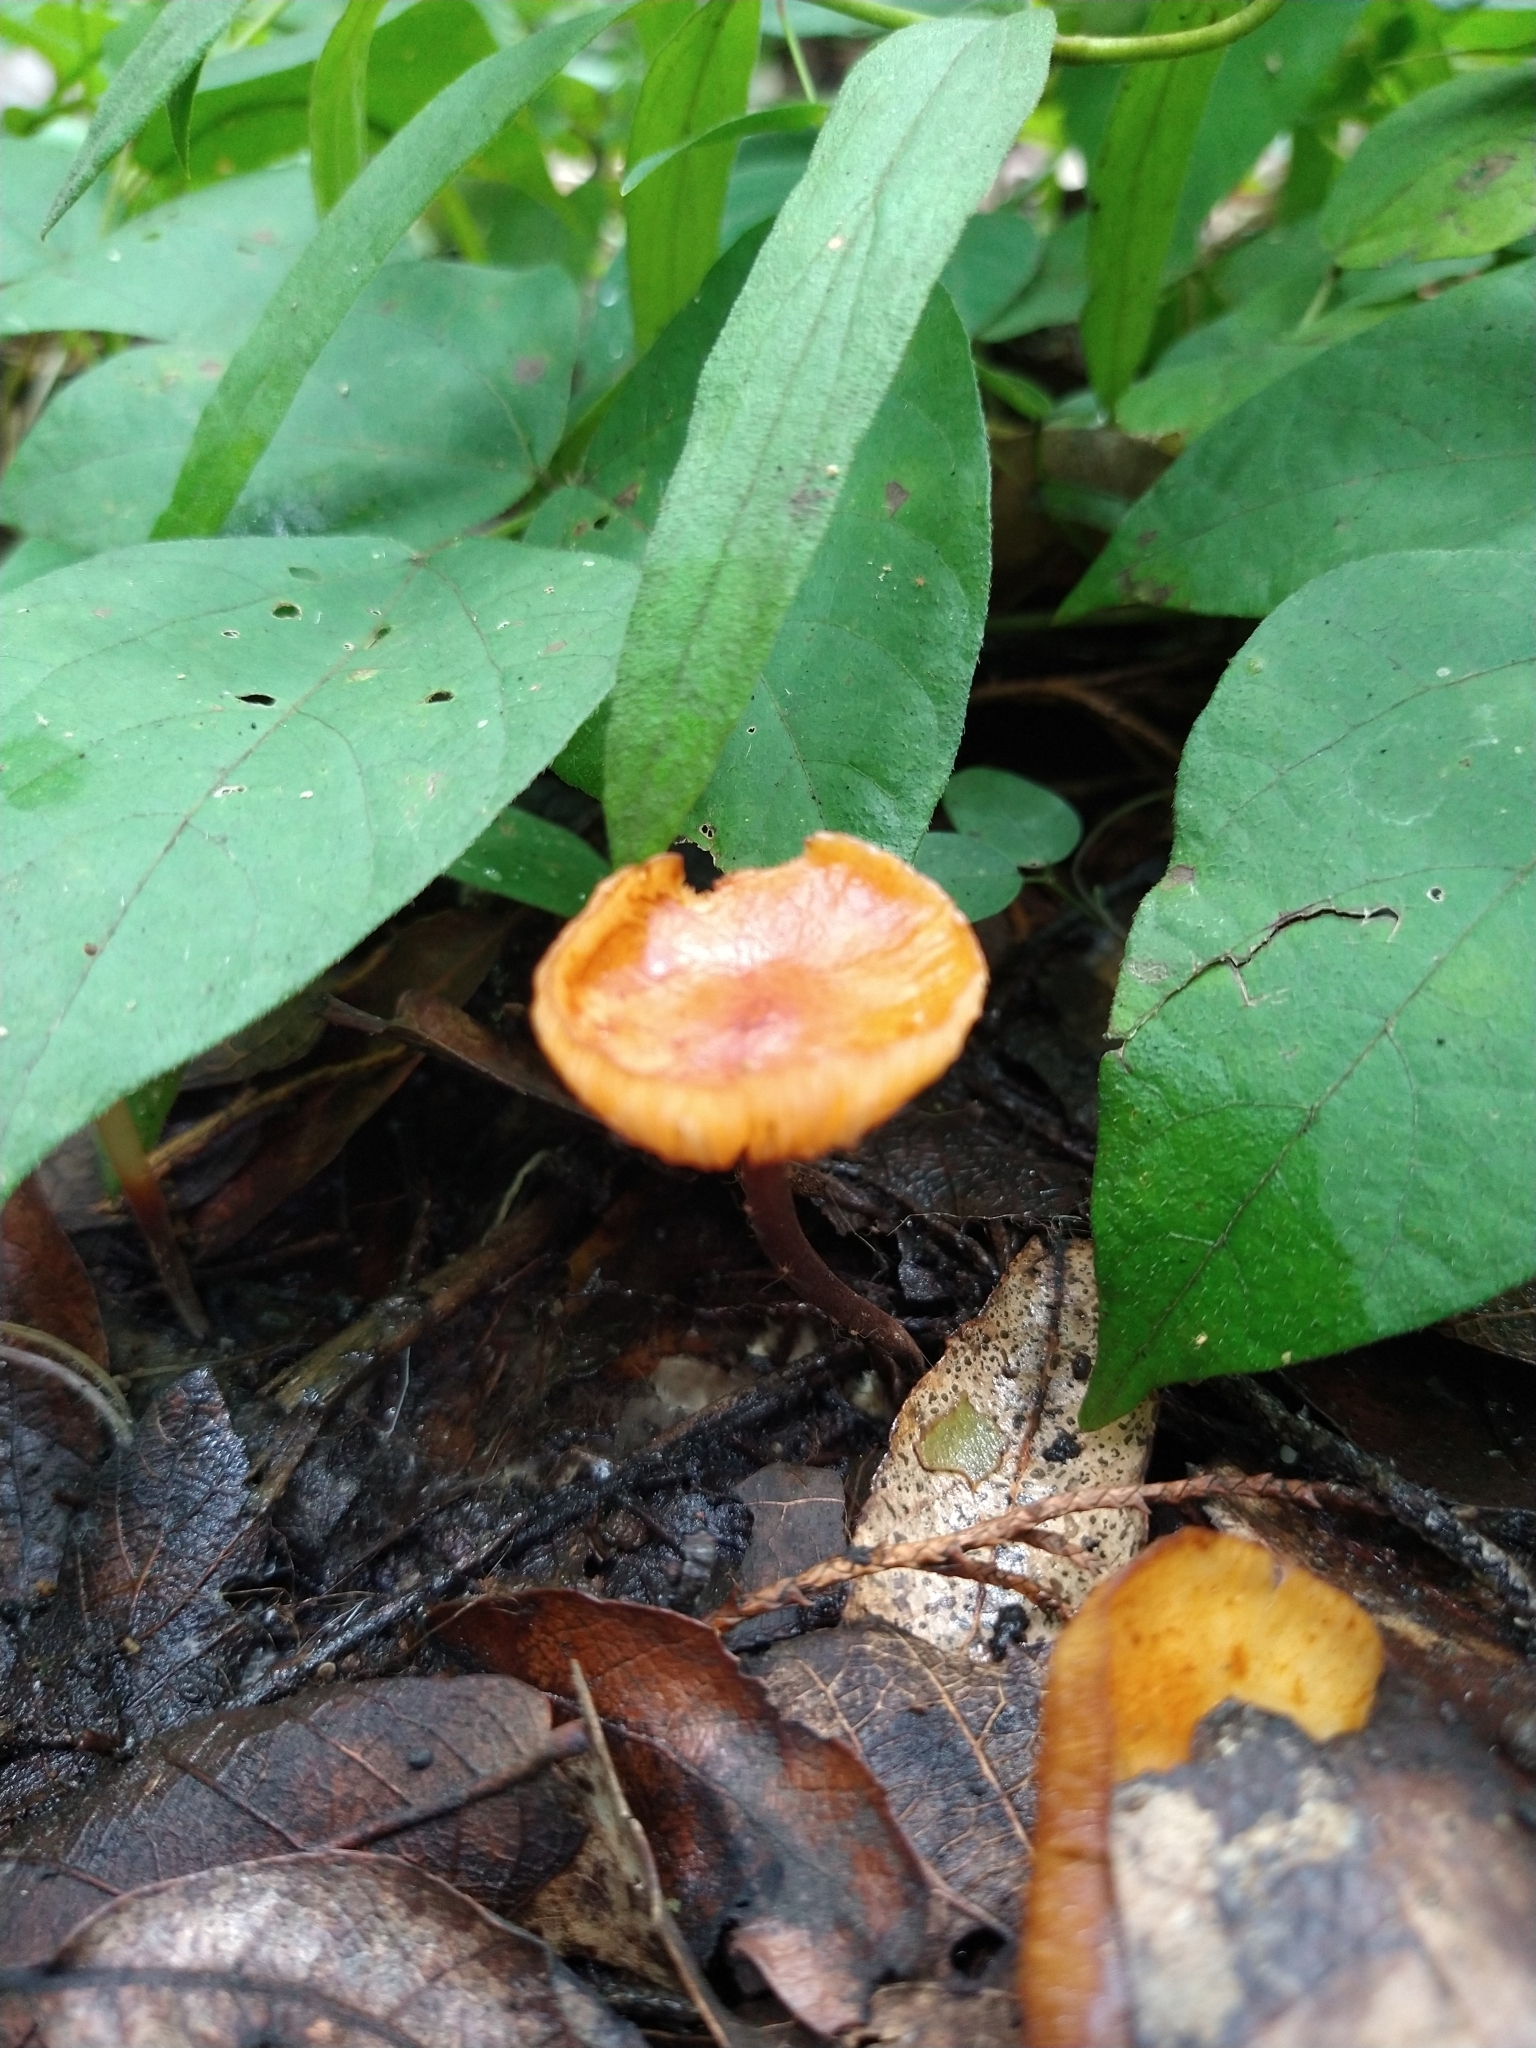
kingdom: Fungi
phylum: Basidiomycota
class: Agaricomycetes
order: Agaricales
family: Mycenaceae
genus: Xeromphalina
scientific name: Xeromphalina tenuipes
